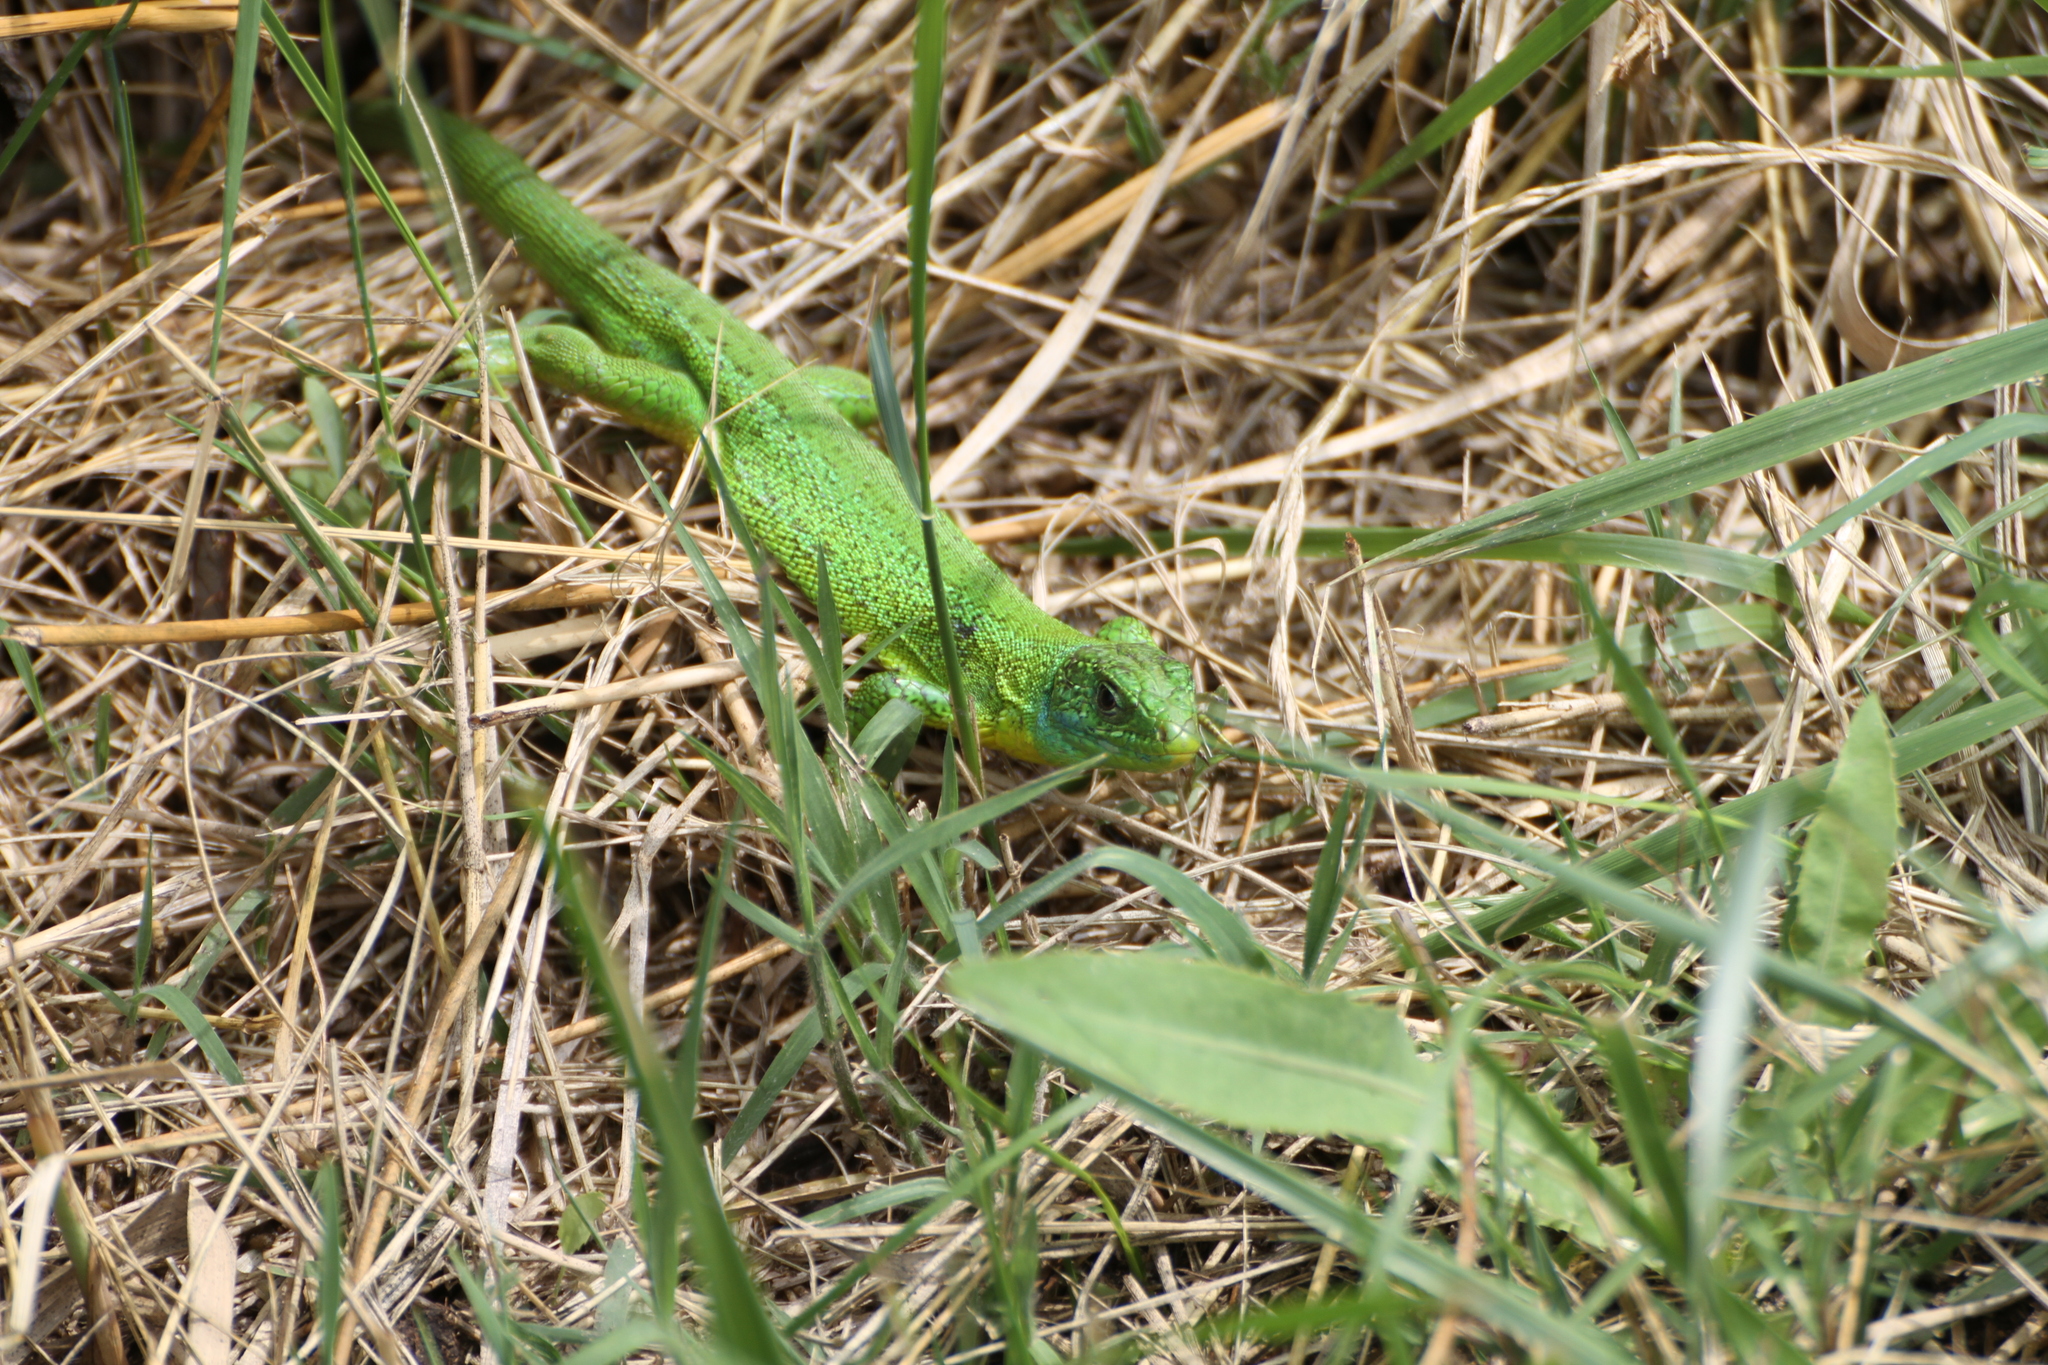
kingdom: Animalia
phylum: Chordata
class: Squamata
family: Lacertidae
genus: Lacerta
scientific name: Lacerta bilineata
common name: Western green lizard
